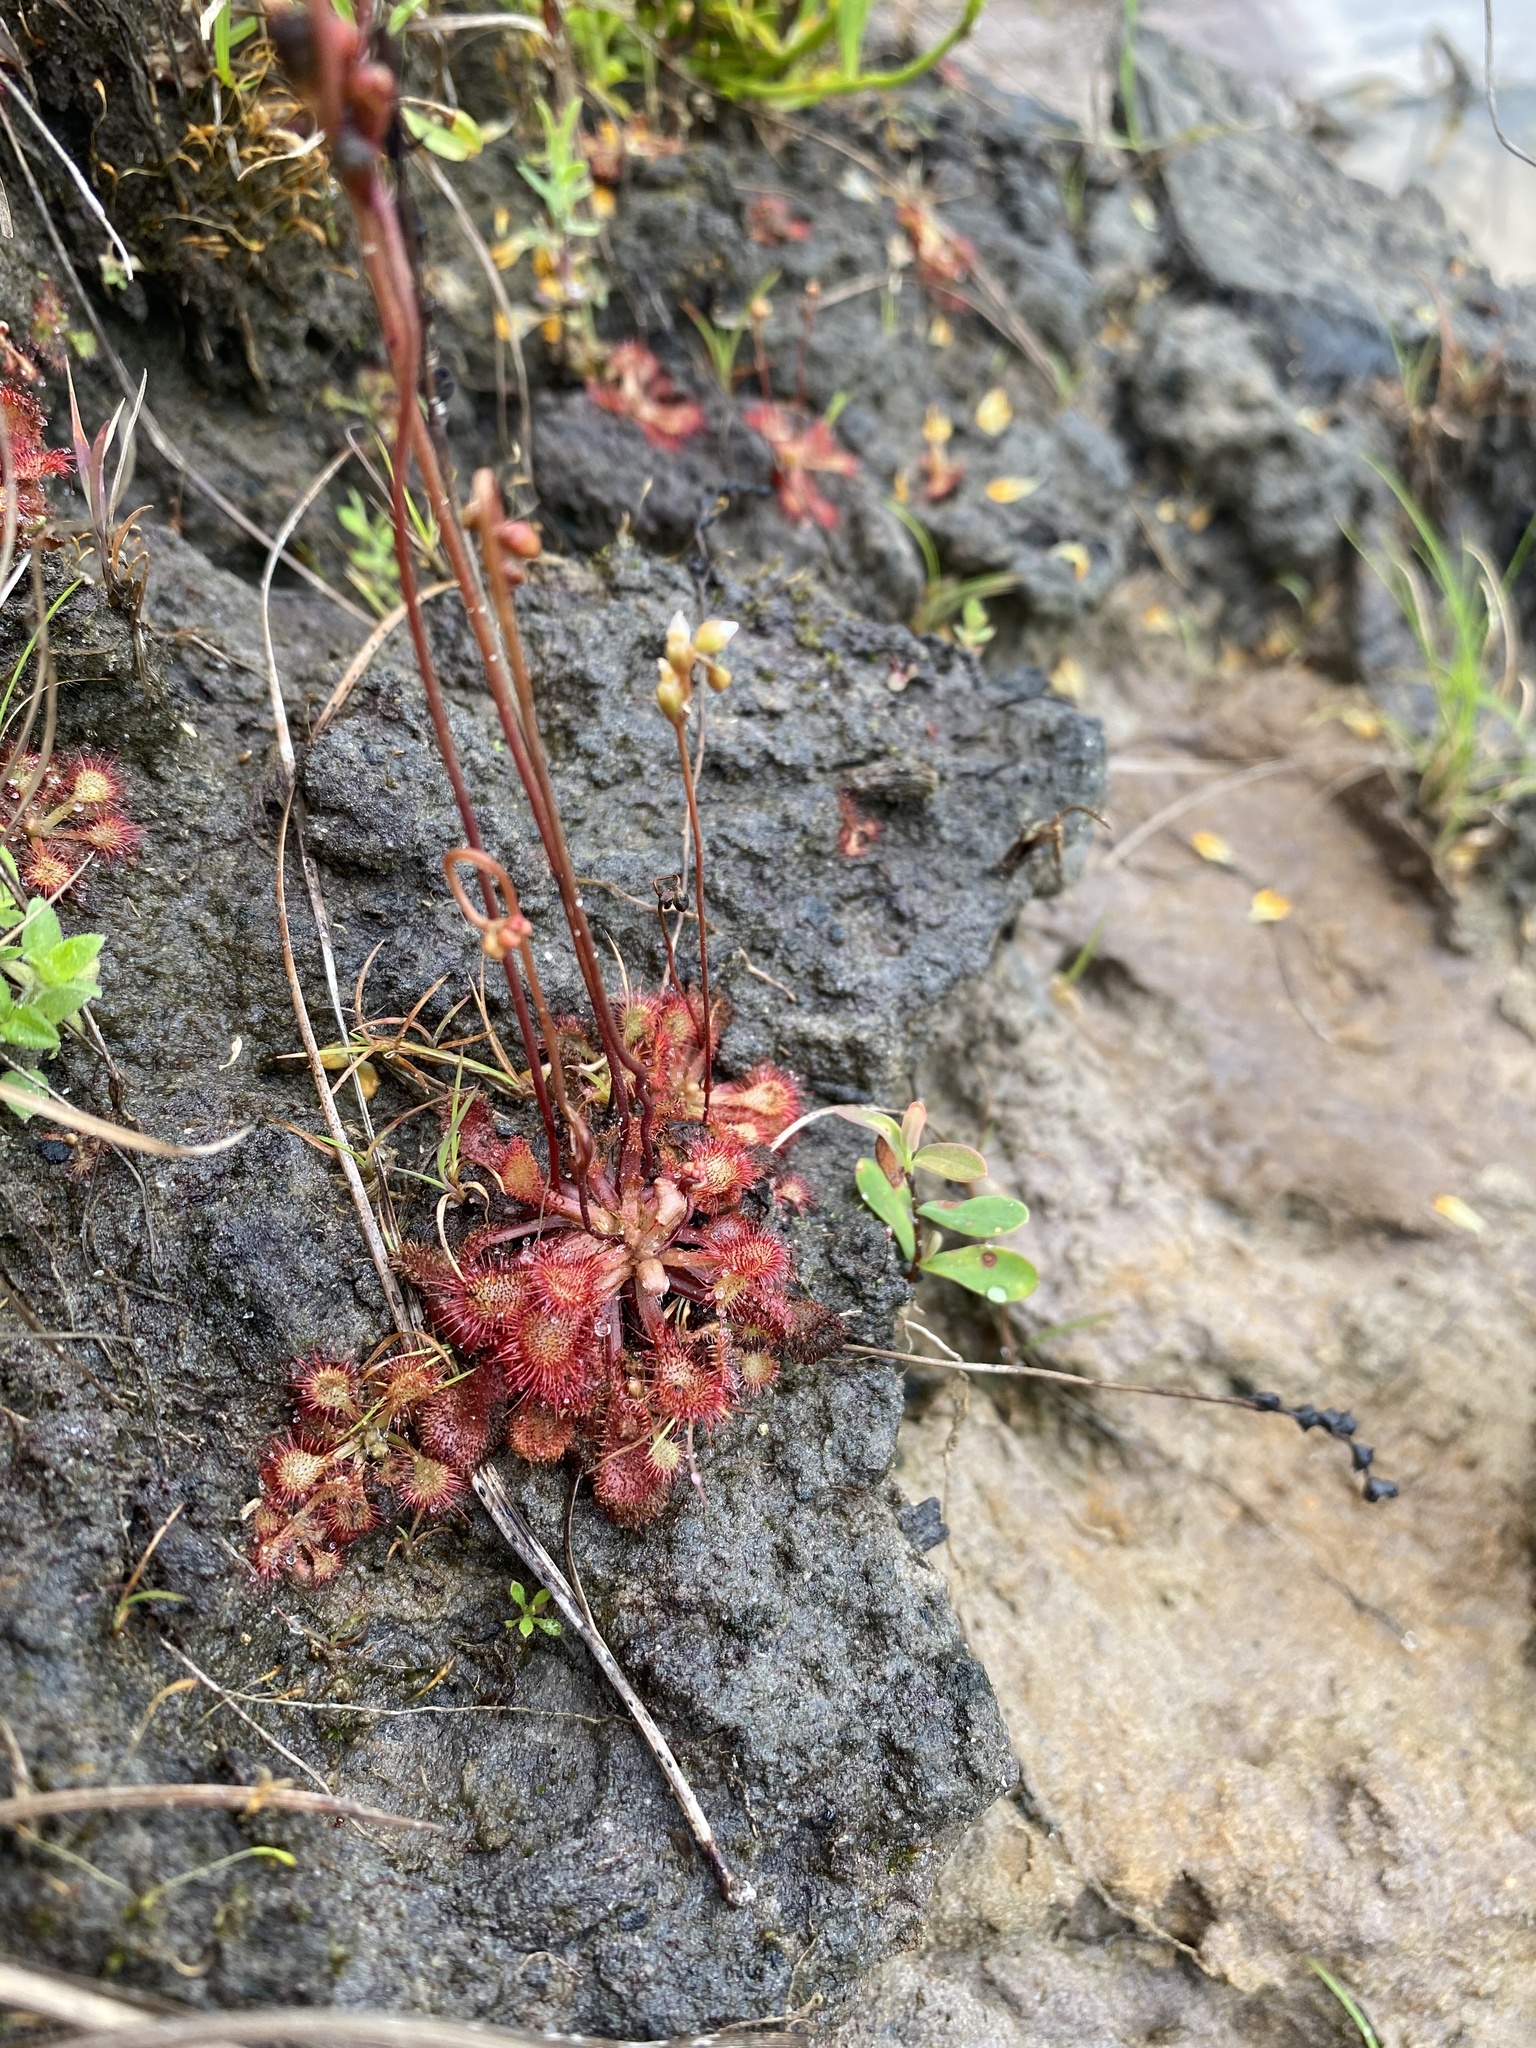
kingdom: Plantae
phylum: Tracheophyta
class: Magnoliopsida
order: Caryophyllales
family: Droseraceae
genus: Drosera
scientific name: Drosera capillaris
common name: Pink sundew
